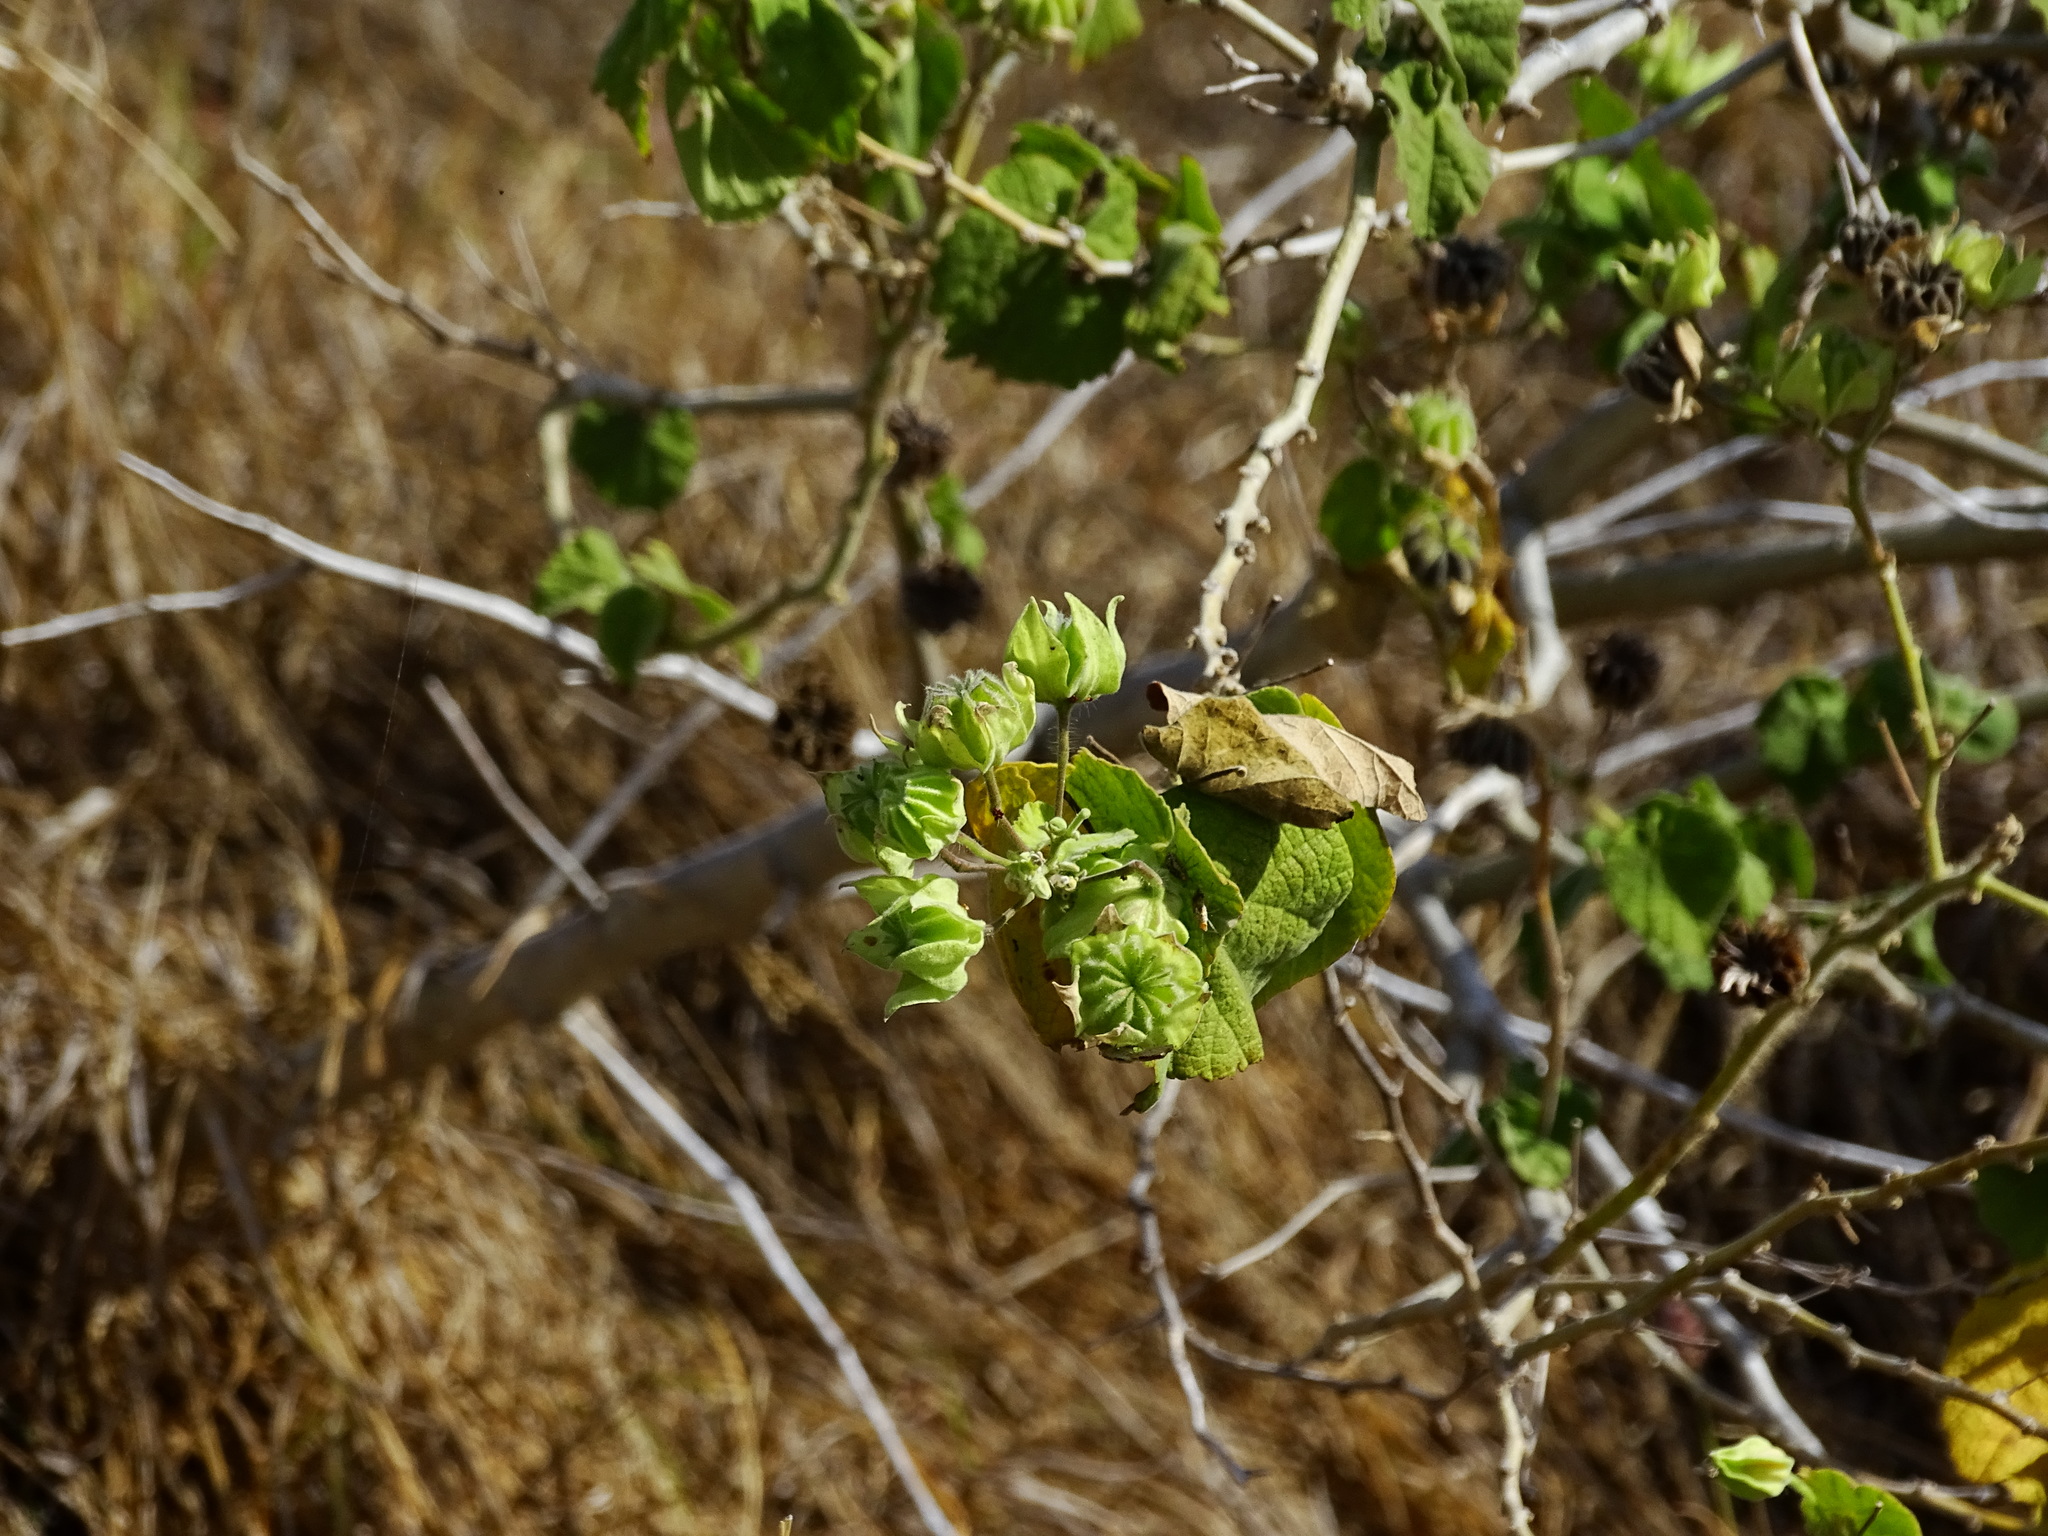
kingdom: Plantae
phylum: Tracheophyta
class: Magnoliopsida
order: Malvales
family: Malvaceae
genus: Abutilon
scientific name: Abutilon grandifolium
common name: Hairy abutilon
